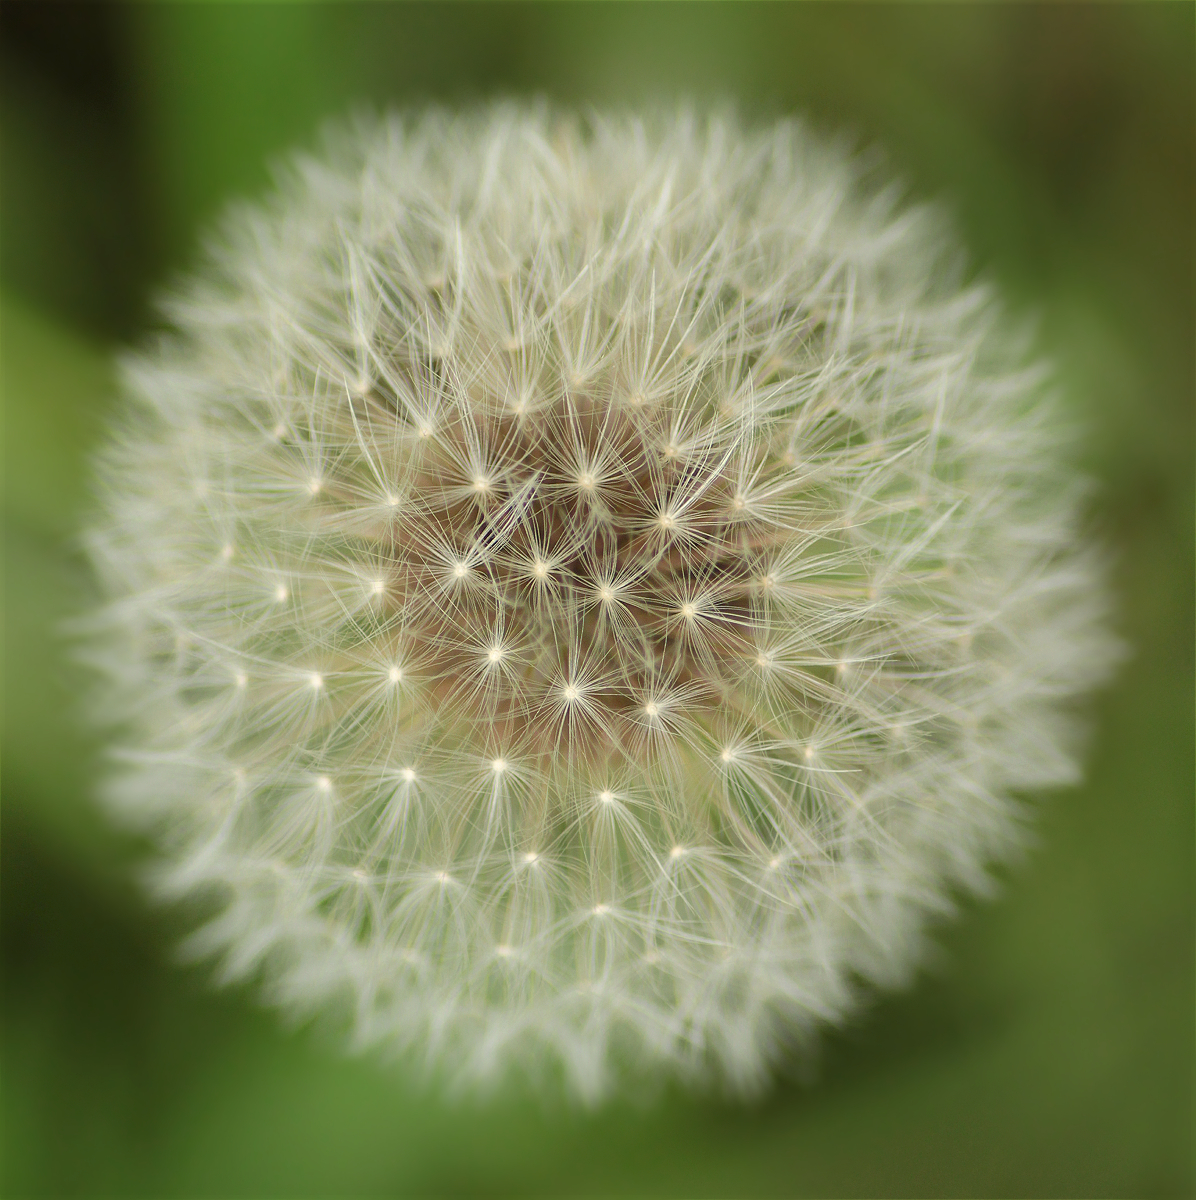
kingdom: Plantae
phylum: Tracheophyta
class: Magnoliopsida
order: Asterales
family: Asteraceae
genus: Taraxacum
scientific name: Taraxacum officinale
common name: Common dandelion
